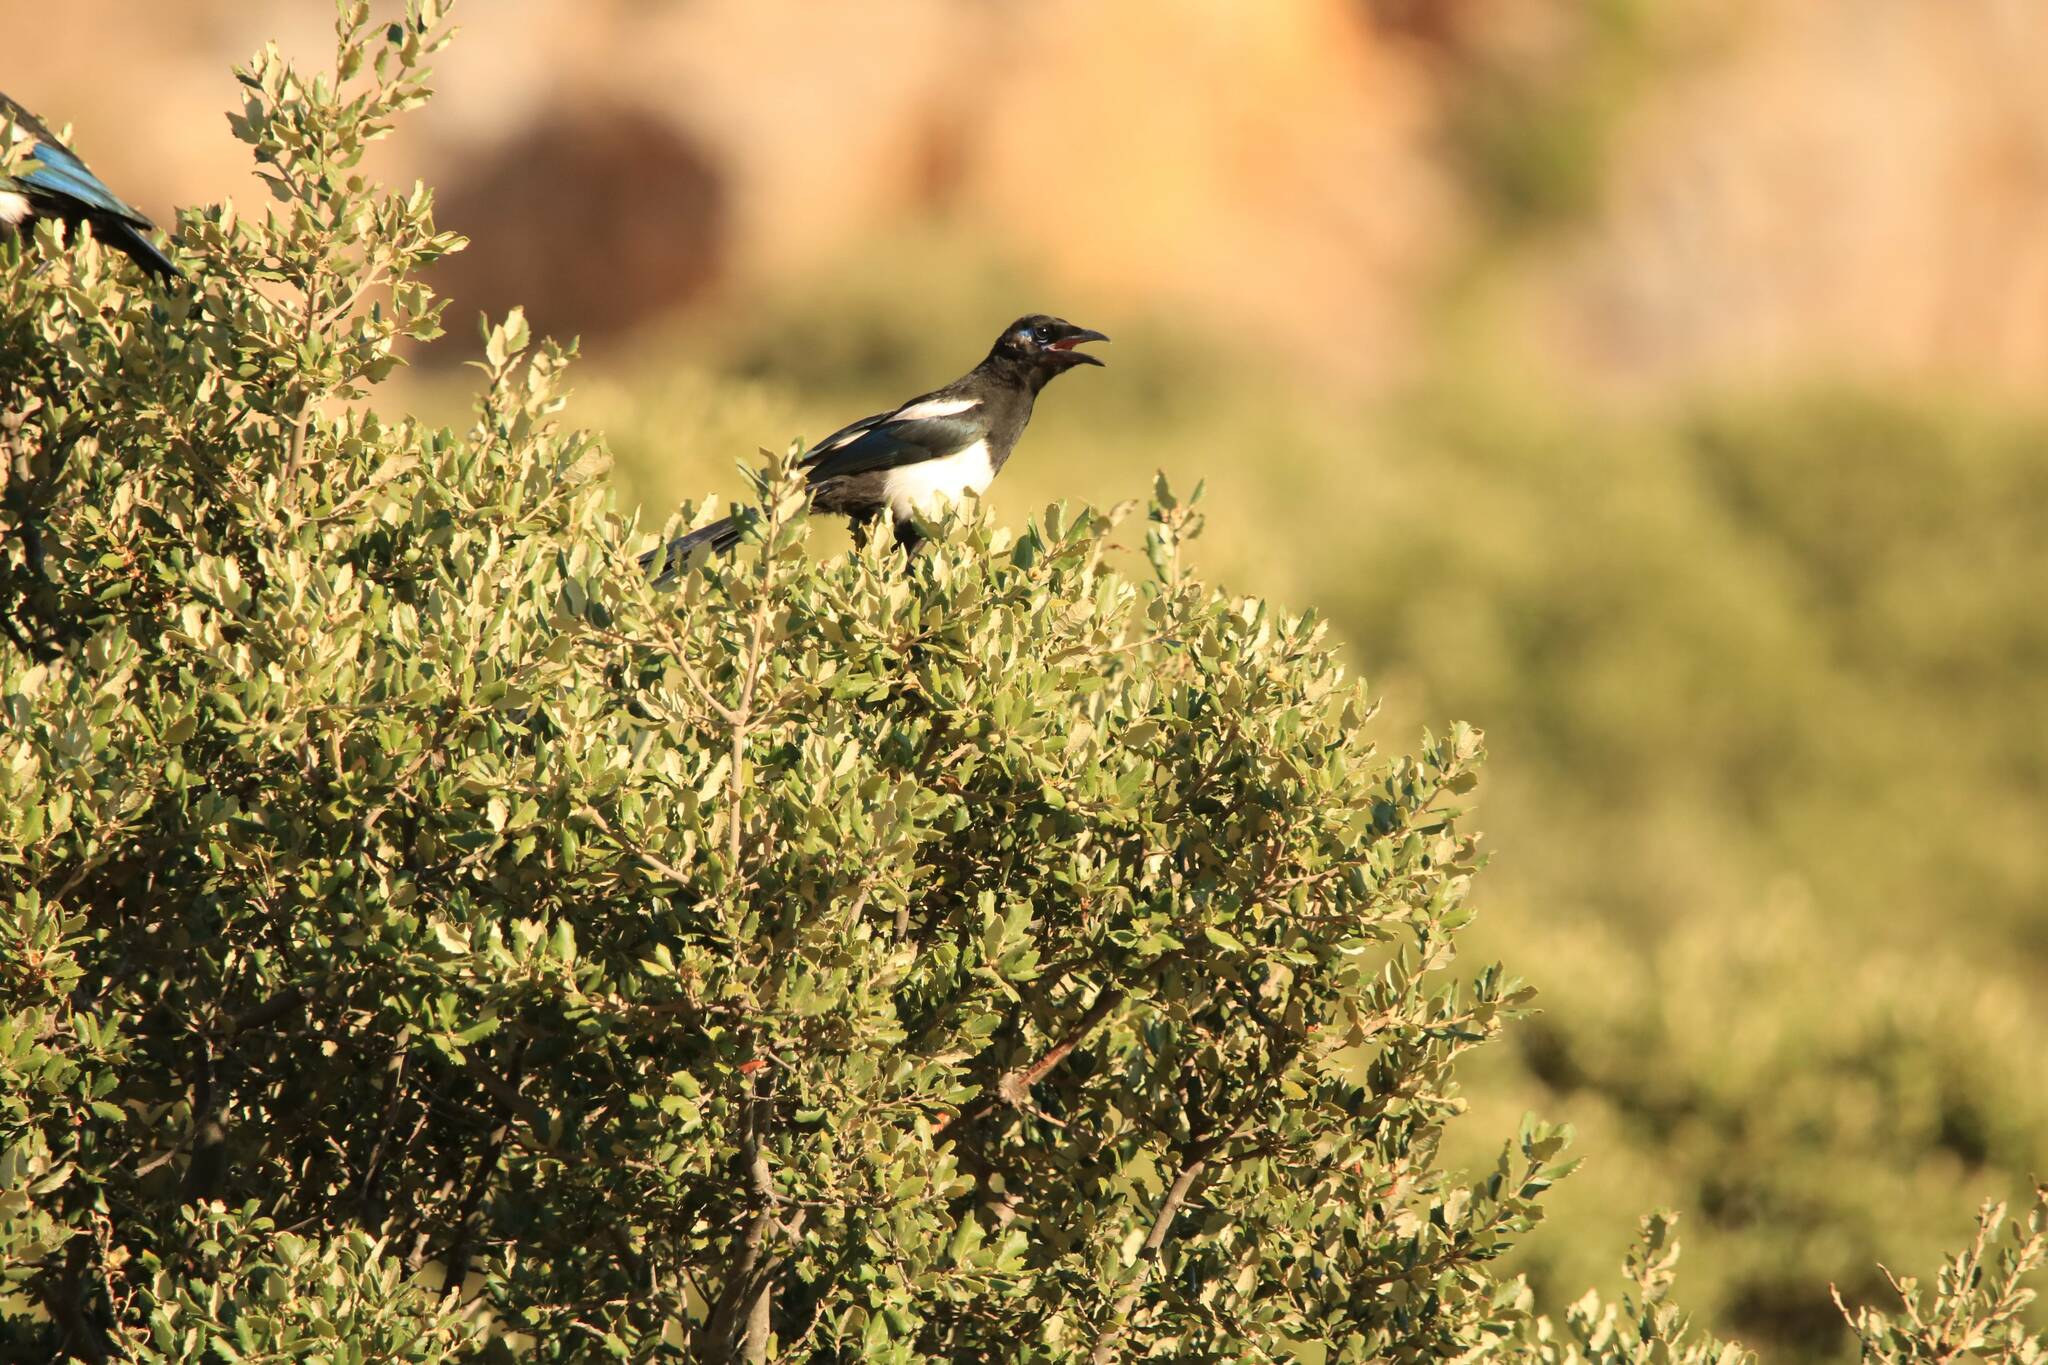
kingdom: Animalia
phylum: Chordata
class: Aves
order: Passeriformes
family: Corvidae
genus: Pica
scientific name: Pica mauritanica
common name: Maghreb magpie
